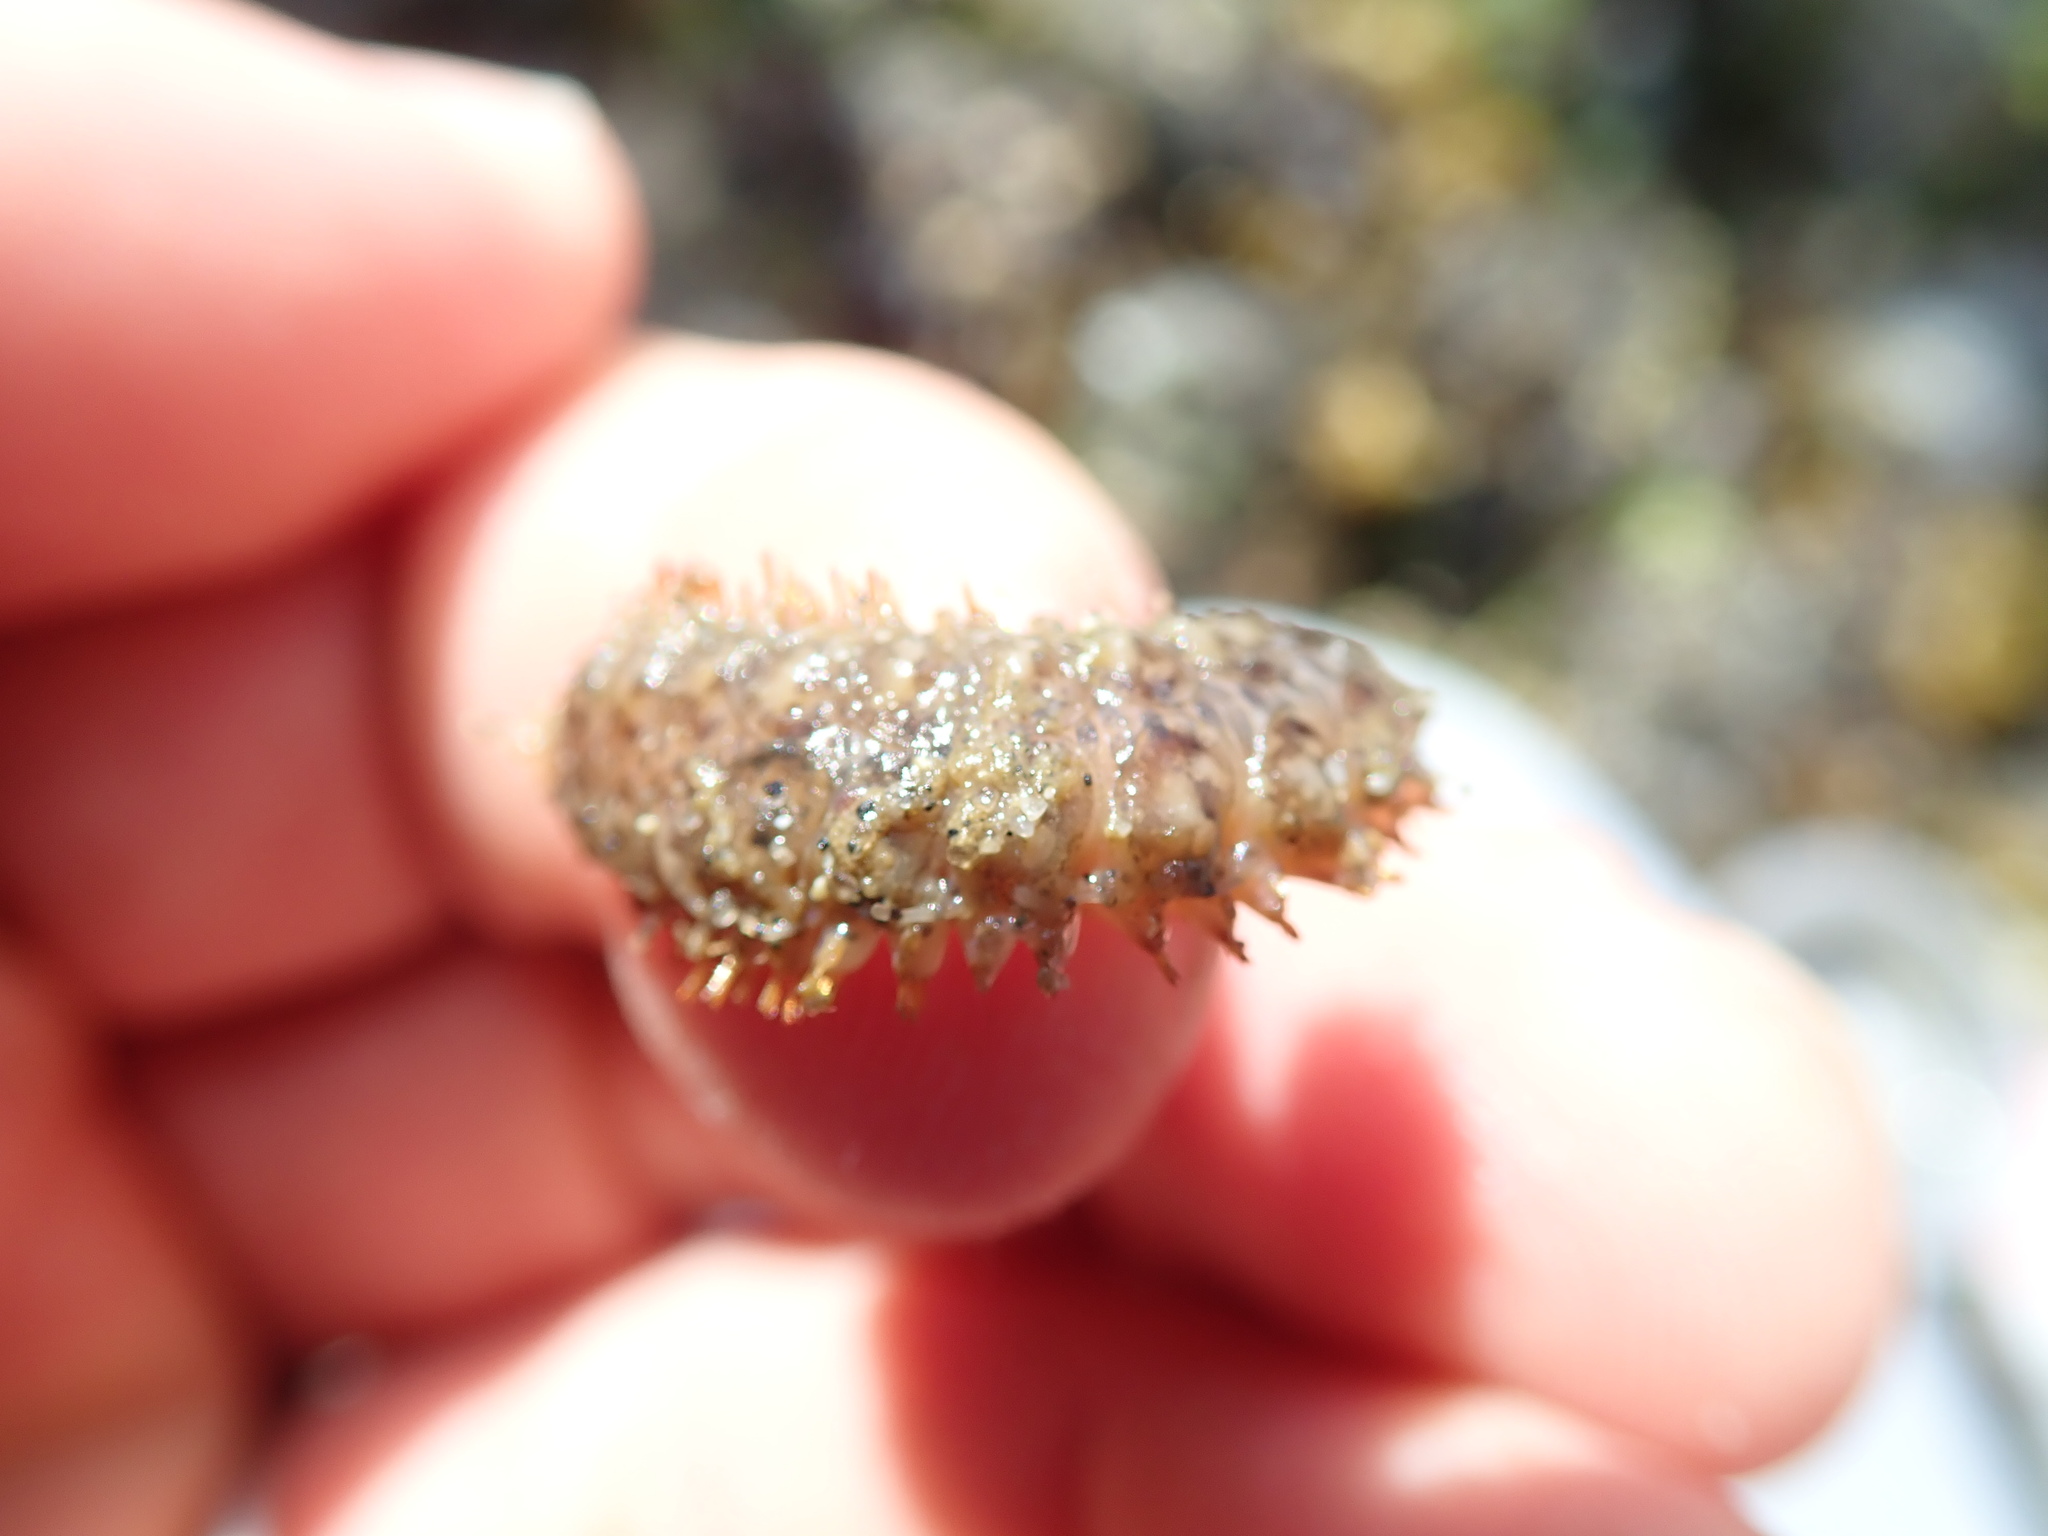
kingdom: Animalia
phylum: Annelida
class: Polychaeta
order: Phyllodocida
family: Polynoidae
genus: Halosydna
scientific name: Halosydna brevisetosa
